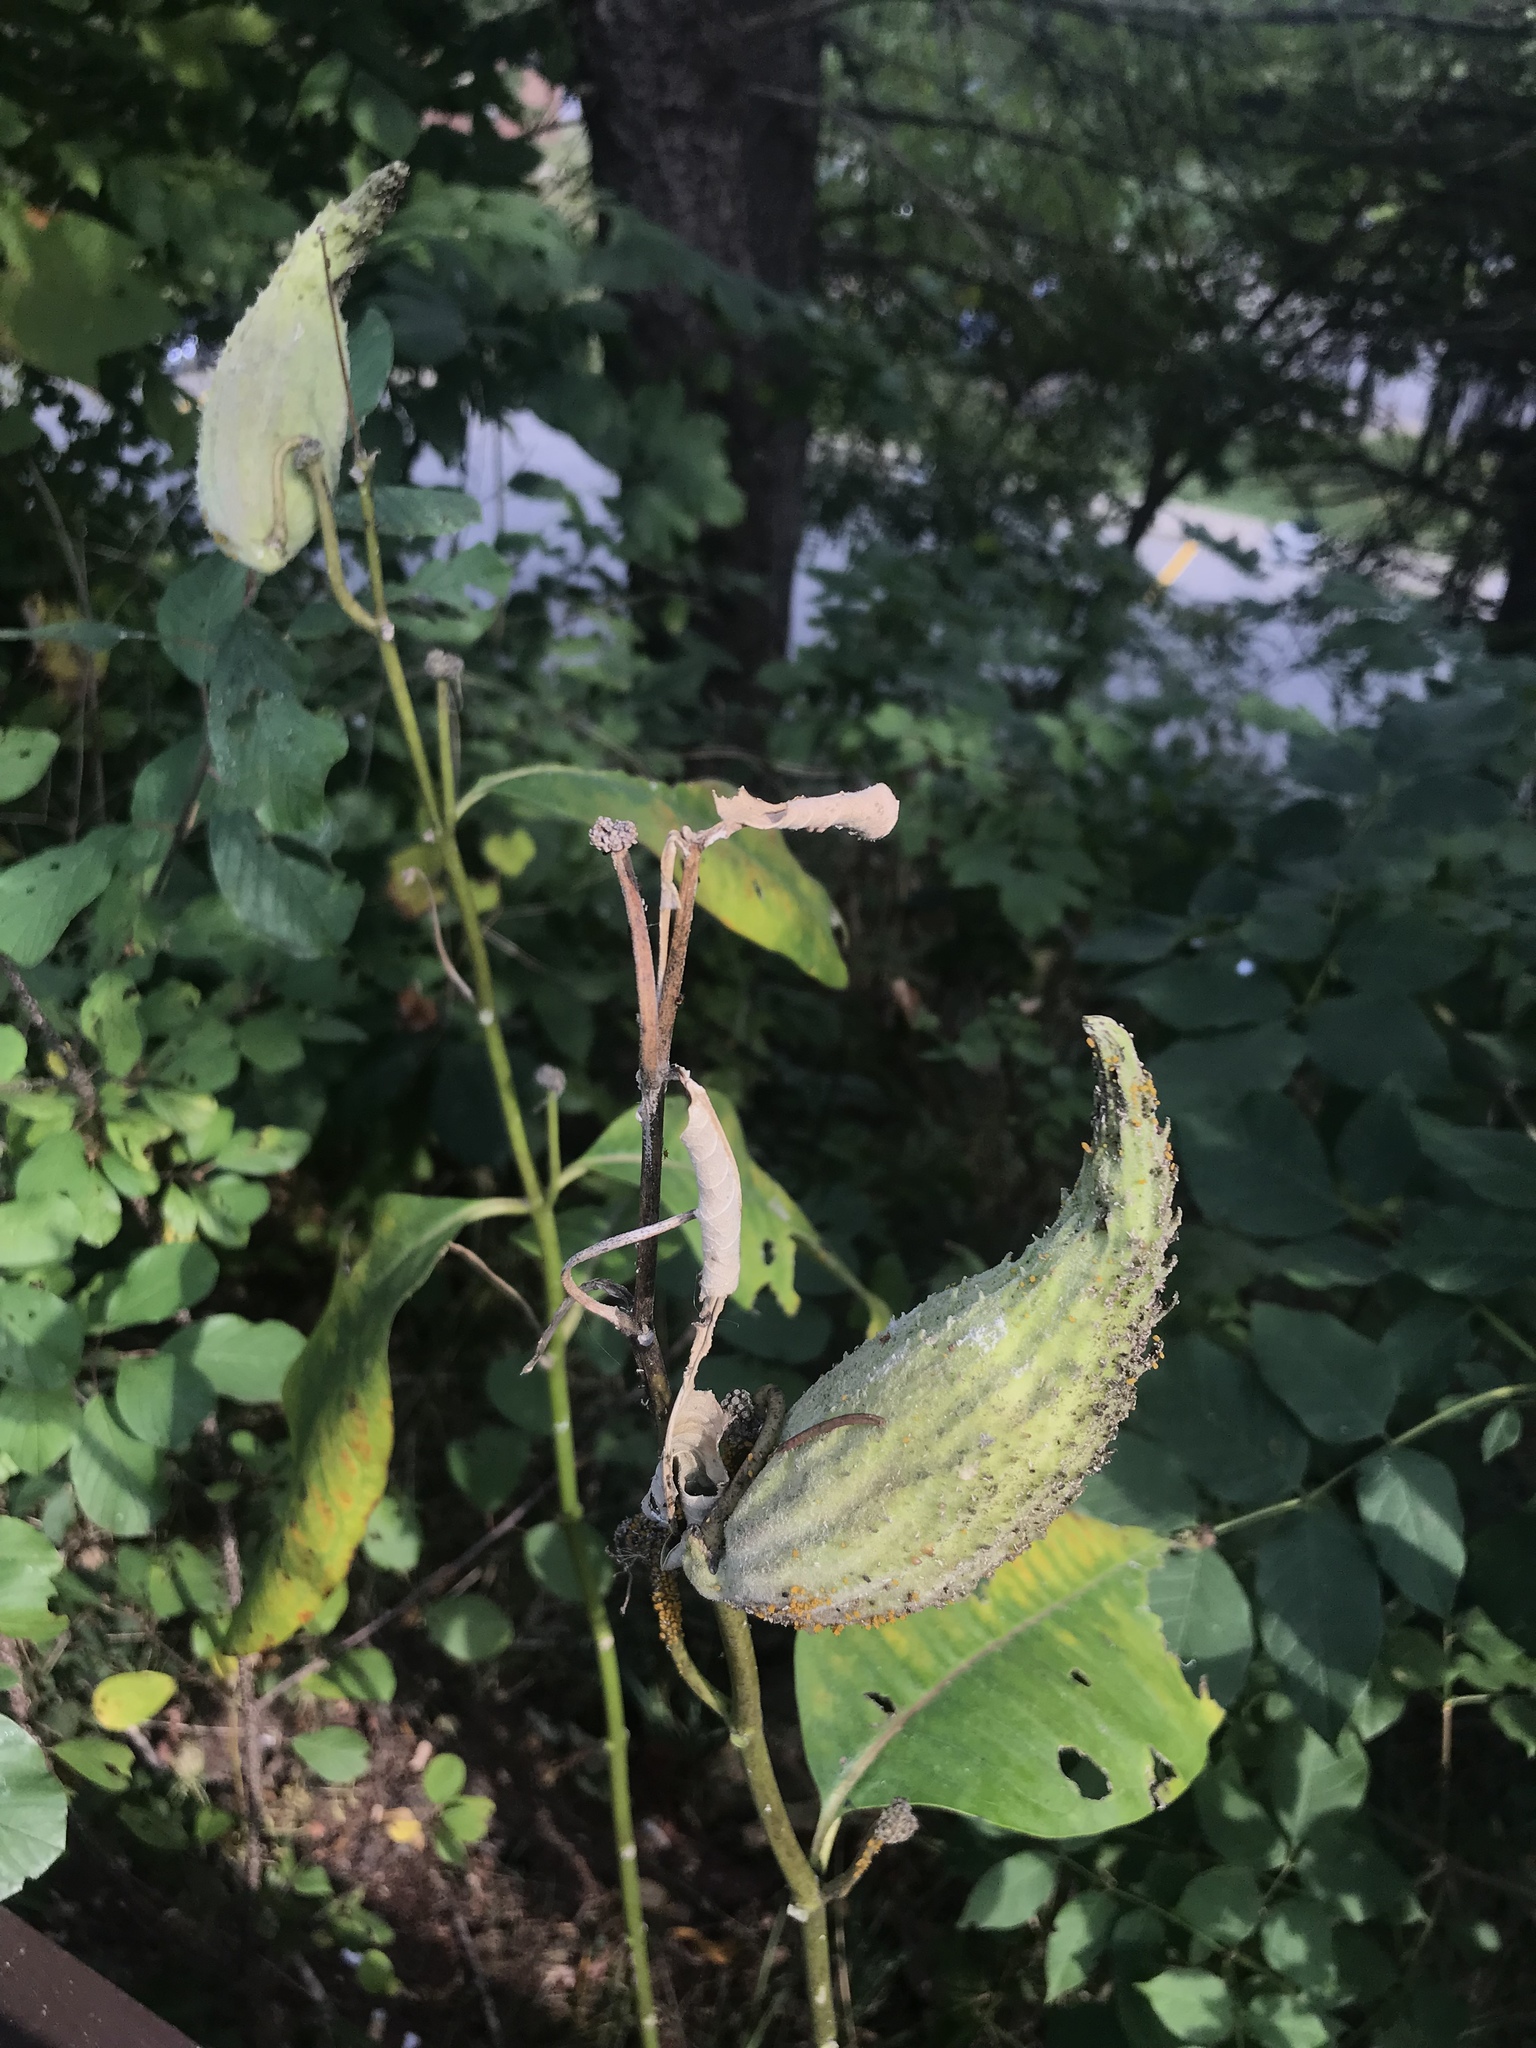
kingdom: Plantae
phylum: Tracheophyta
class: Magnoliopsida
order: Gentianales
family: Apocynaceae
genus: Asclepias
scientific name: Asclepias syriaca
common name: Common milkweed
